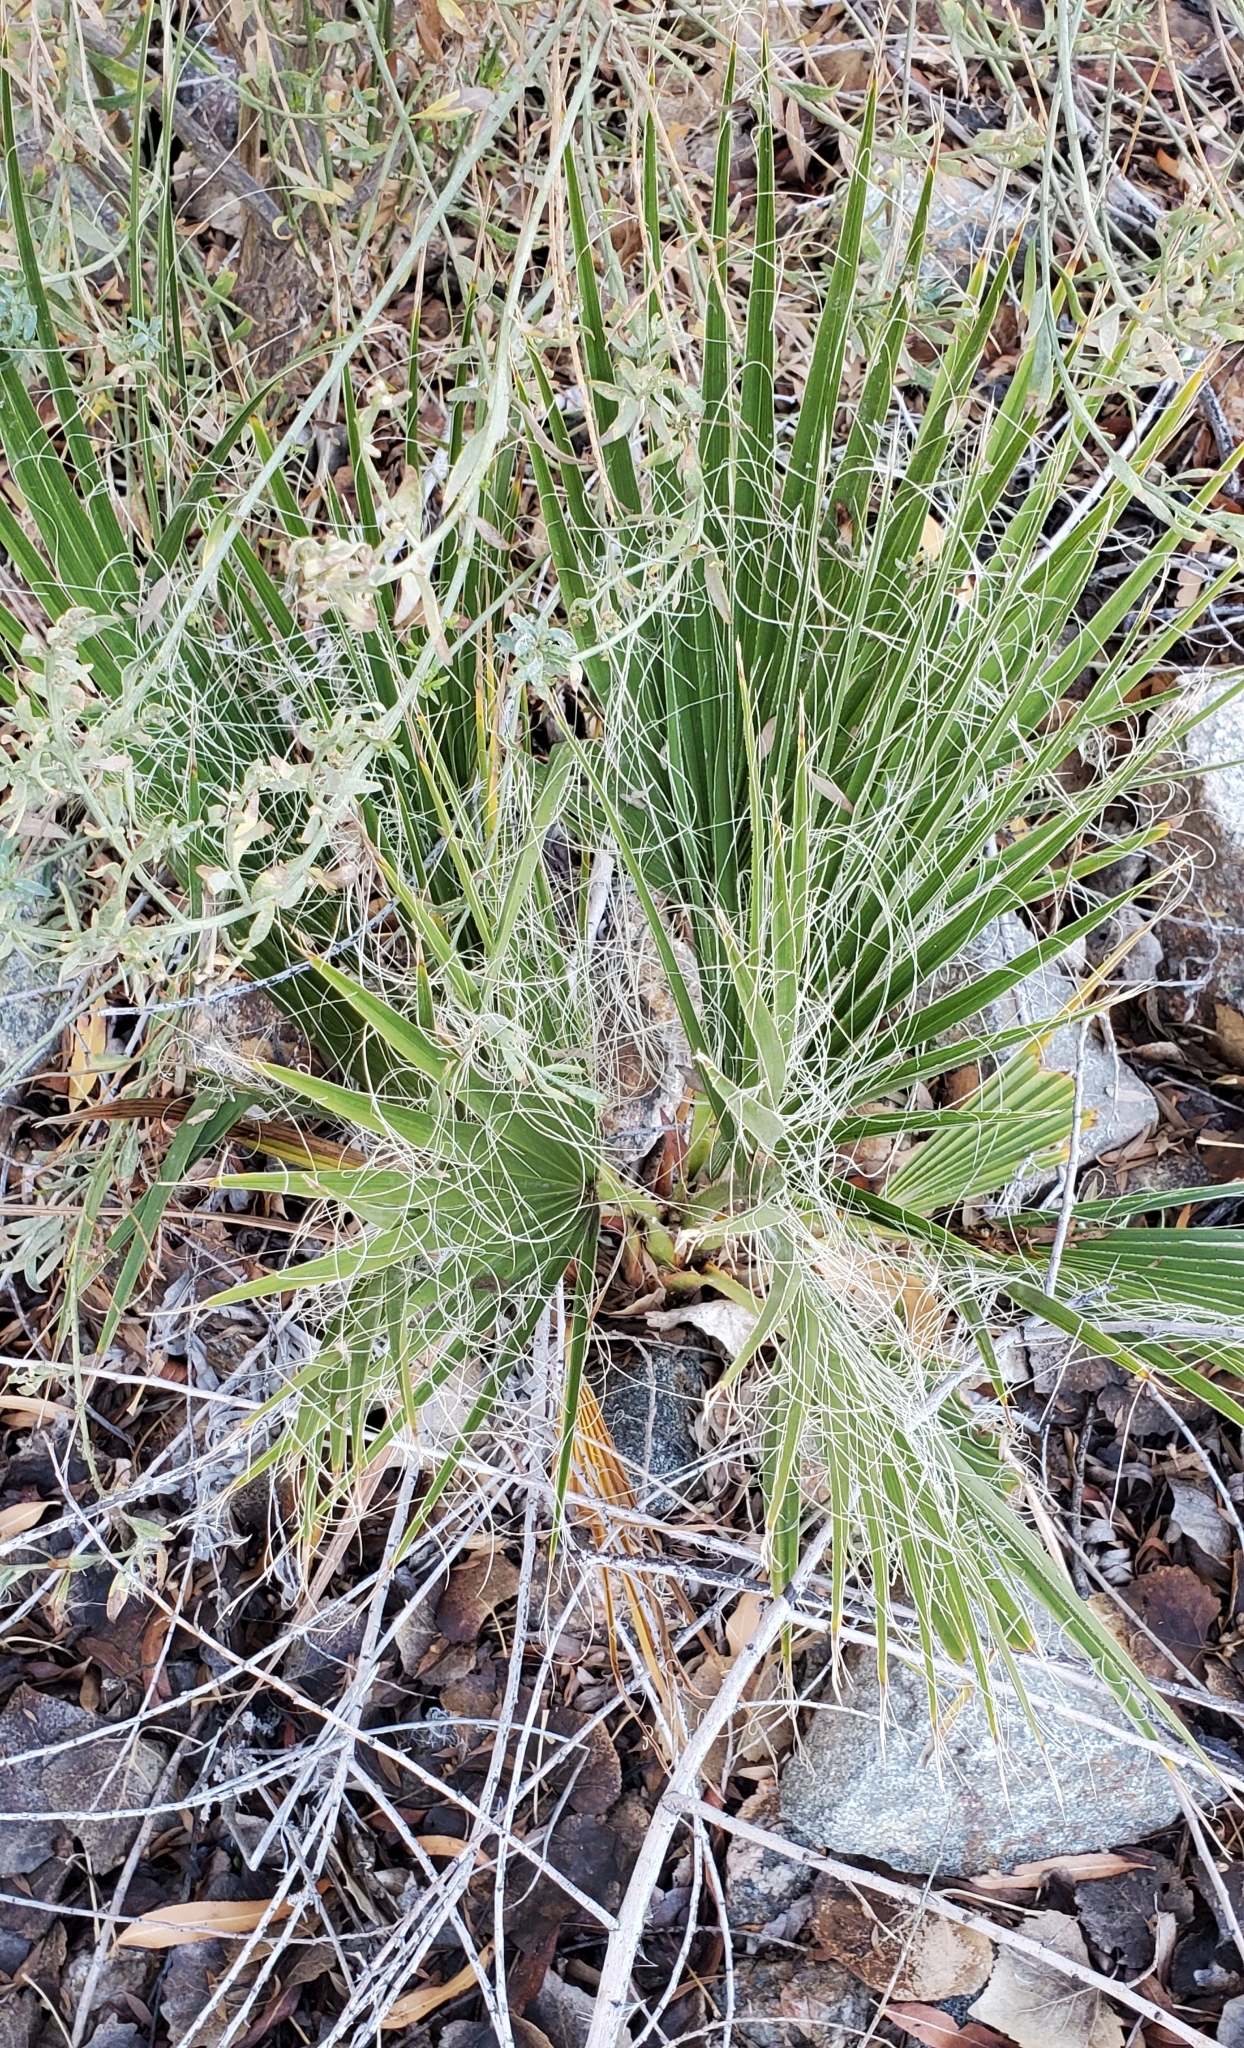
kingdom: Plantae
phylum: Tracheophyta
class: Liliopsida
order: Arecales
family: Arecaceae
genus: Washingtonia
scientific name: Washingtonia filifera
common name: California fan palm
